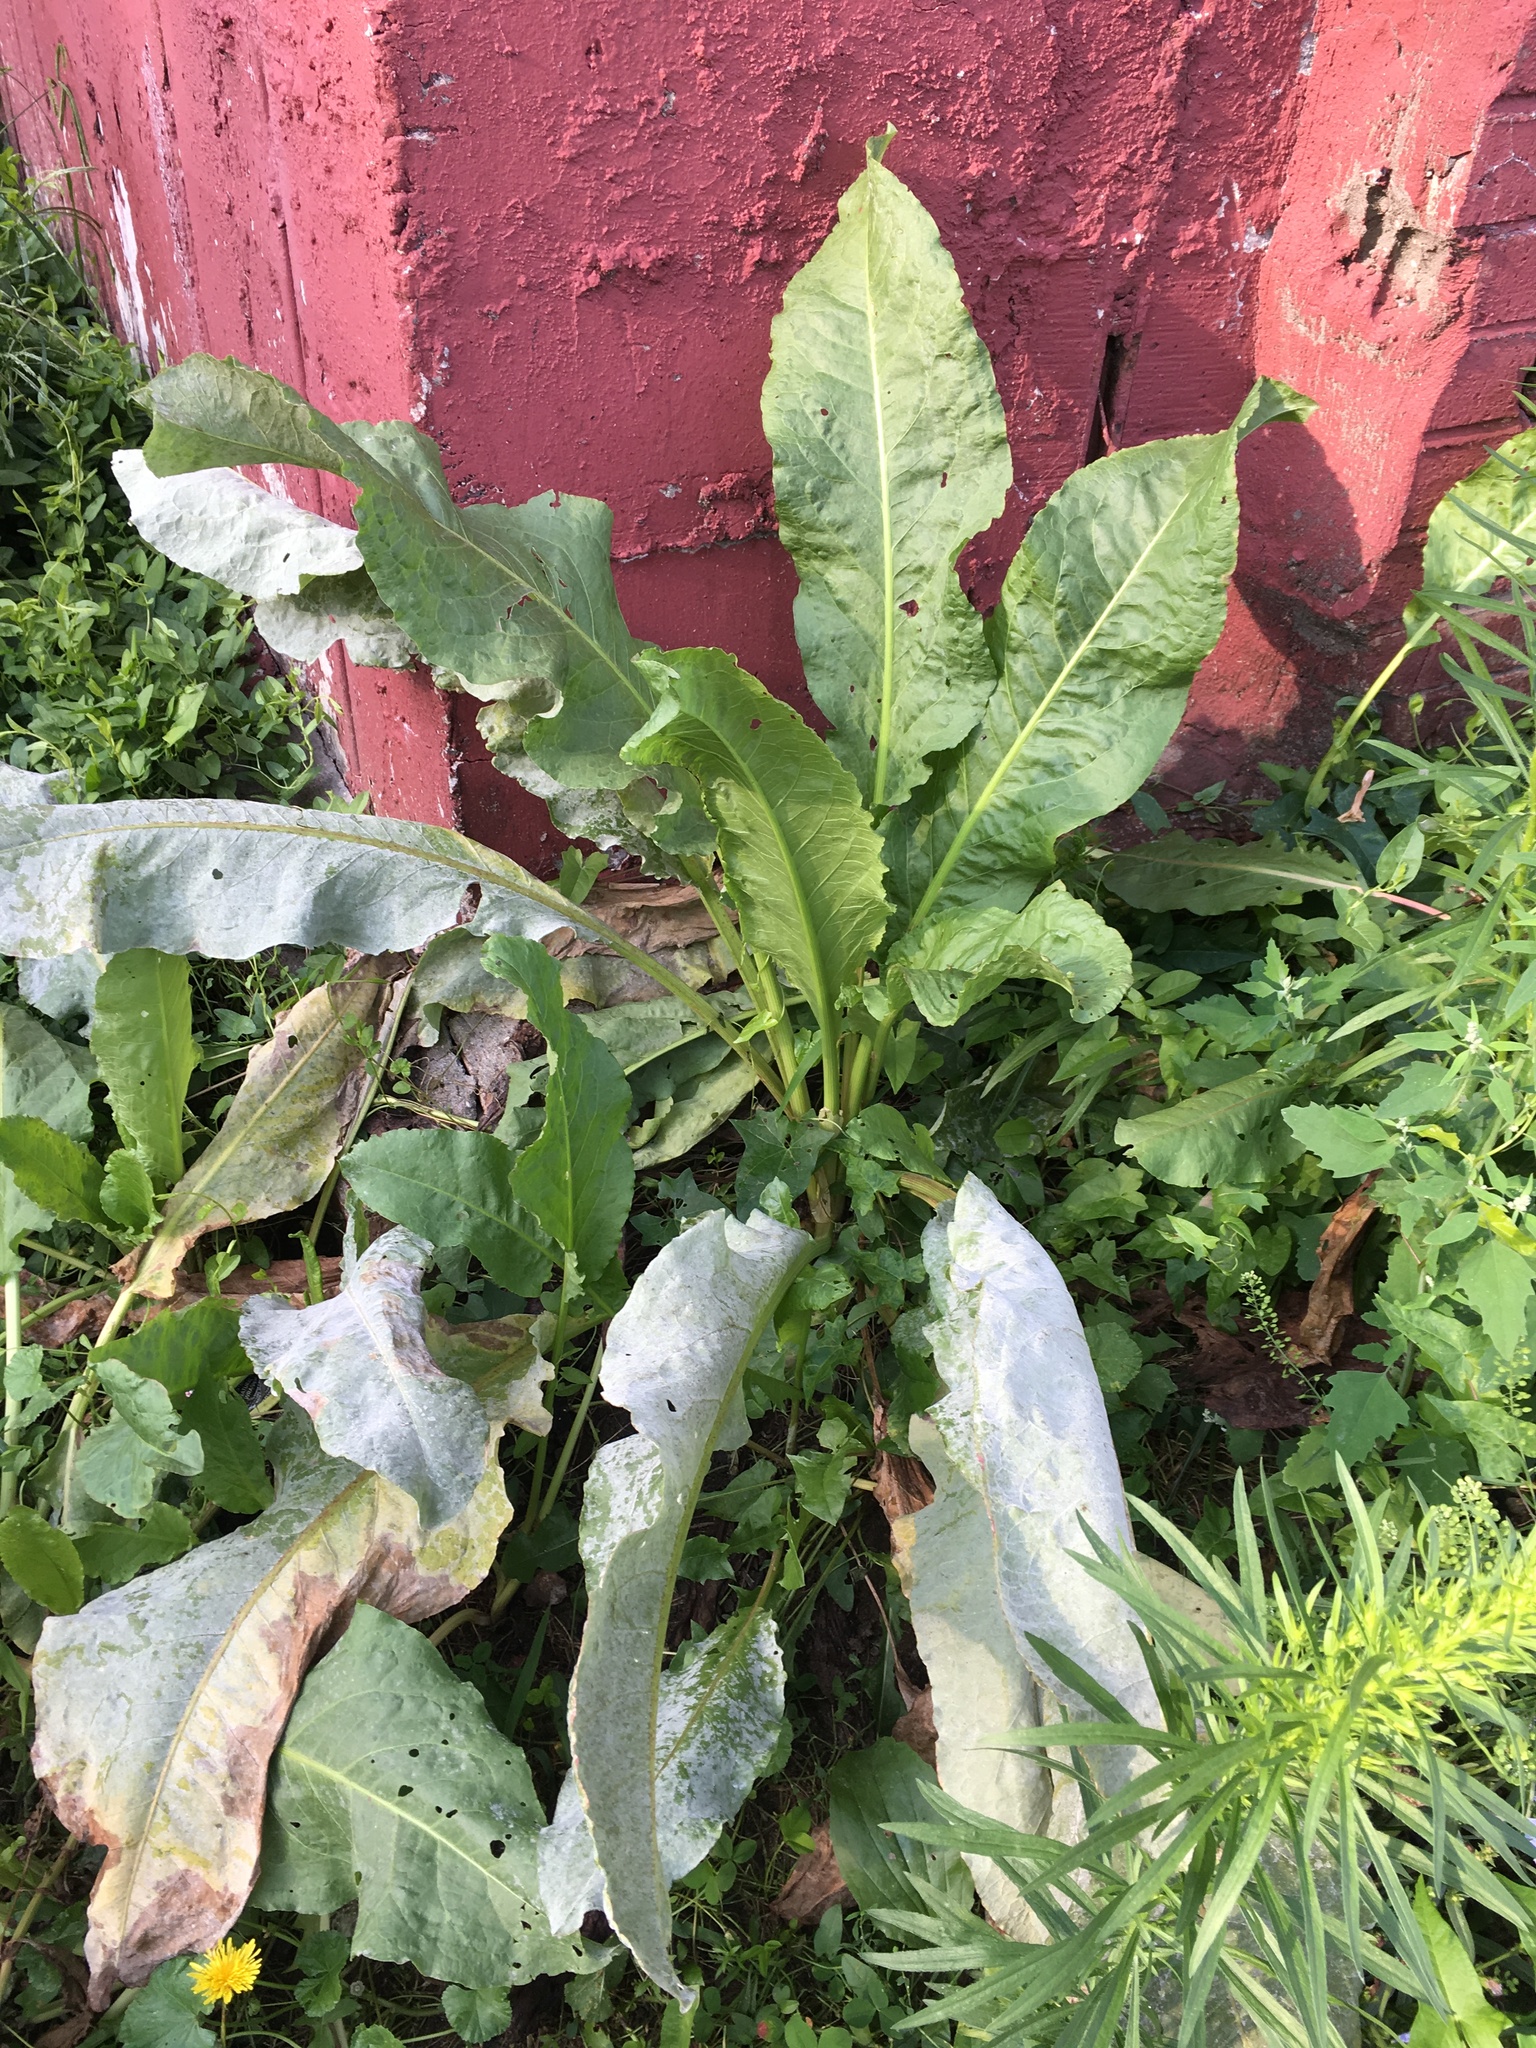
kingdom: Plantae
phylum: Tracheophyta
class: Magnoliopsida
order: Caryophyllales
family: Polygonaceae
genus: Rumex
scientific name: Rumex patientia
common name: Patience dock
